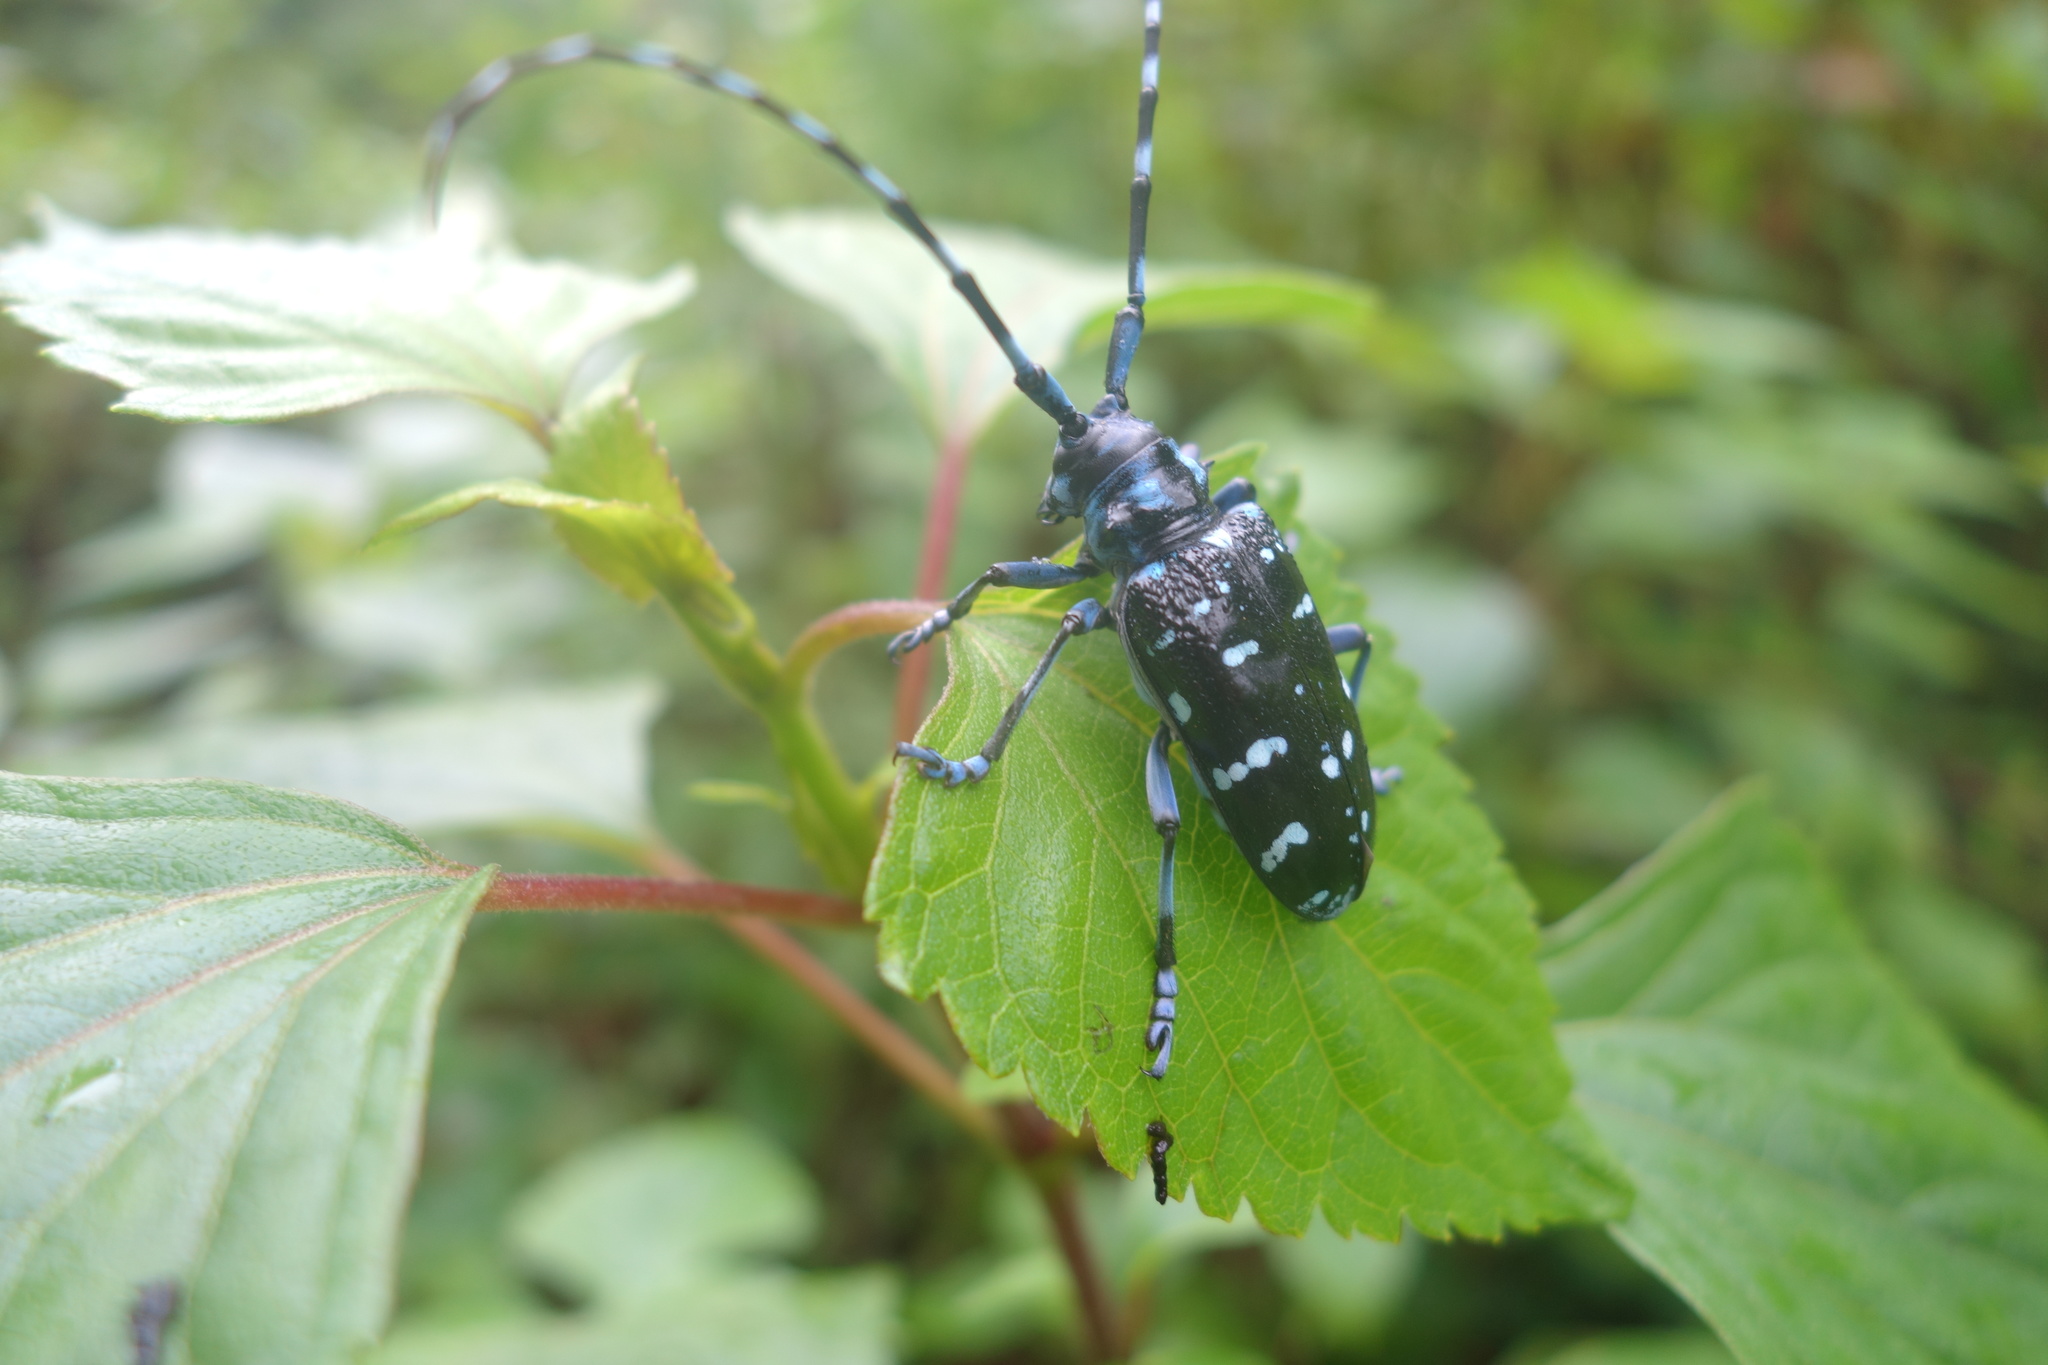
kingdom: Animalia
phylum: Arthropoda
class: Insecta
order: Coleoptera
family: Cerambycidae
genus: Anoplophora
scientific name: Anoplophora chinensis
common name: Citrus longhorned beetle
